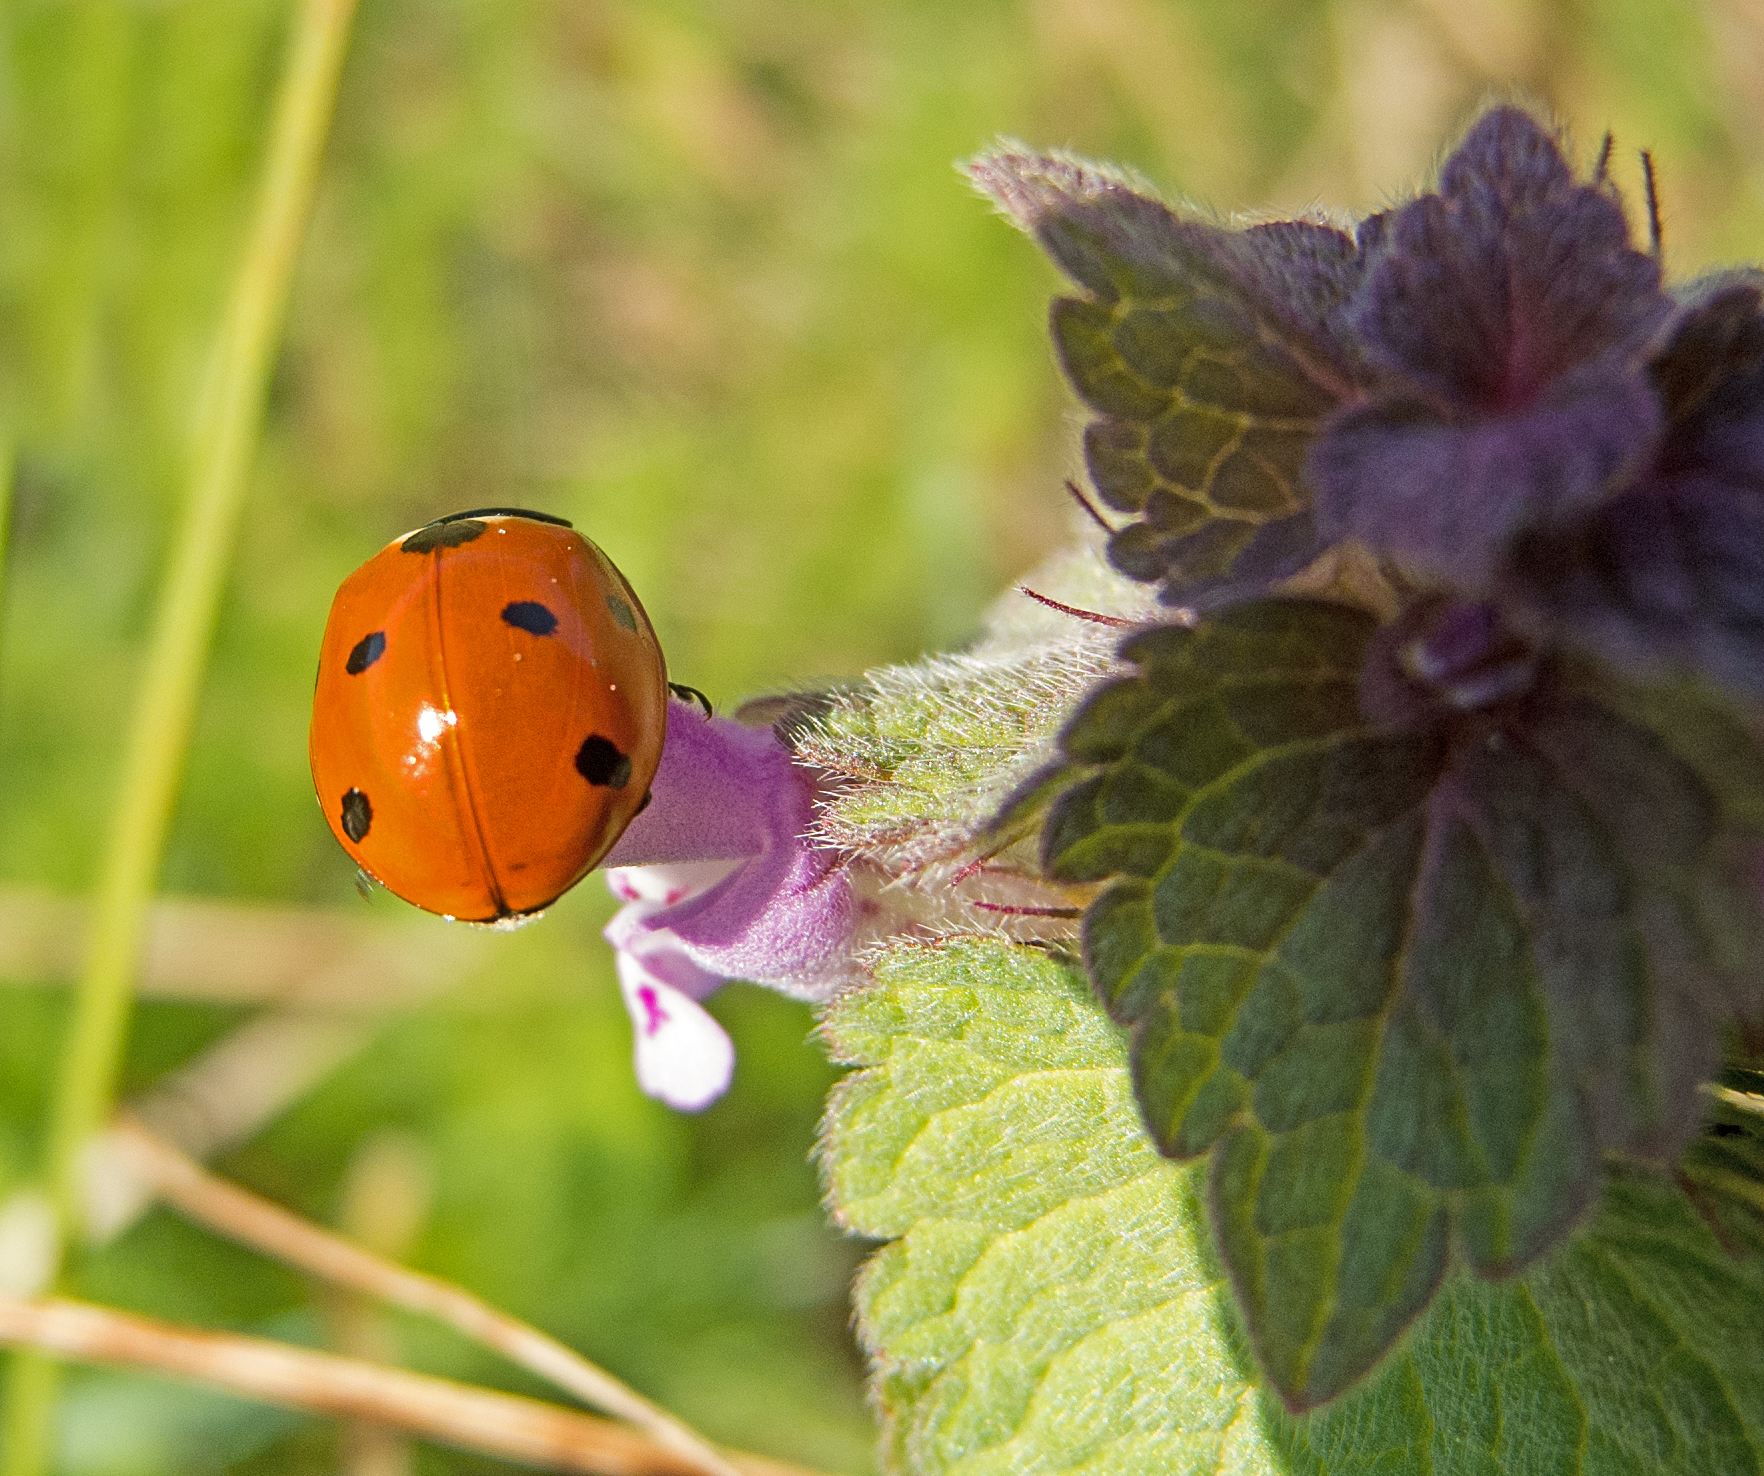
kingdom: Animalia
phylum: Arthropoda
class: Insecta
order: Coleoptera
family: Coccinellidae
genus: Coccinella
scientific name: Coccinella septempunctata
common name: Sevenspotted lady beetle
